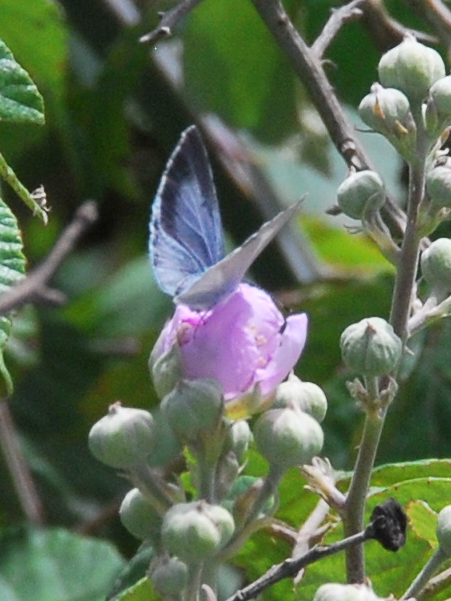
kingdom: Animalia
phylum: Arthropoda
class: Insecta
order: Lepidoptera
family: Lycaenidae
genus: Celastrina
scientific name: Celastrina argiolus
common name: Holly blue
